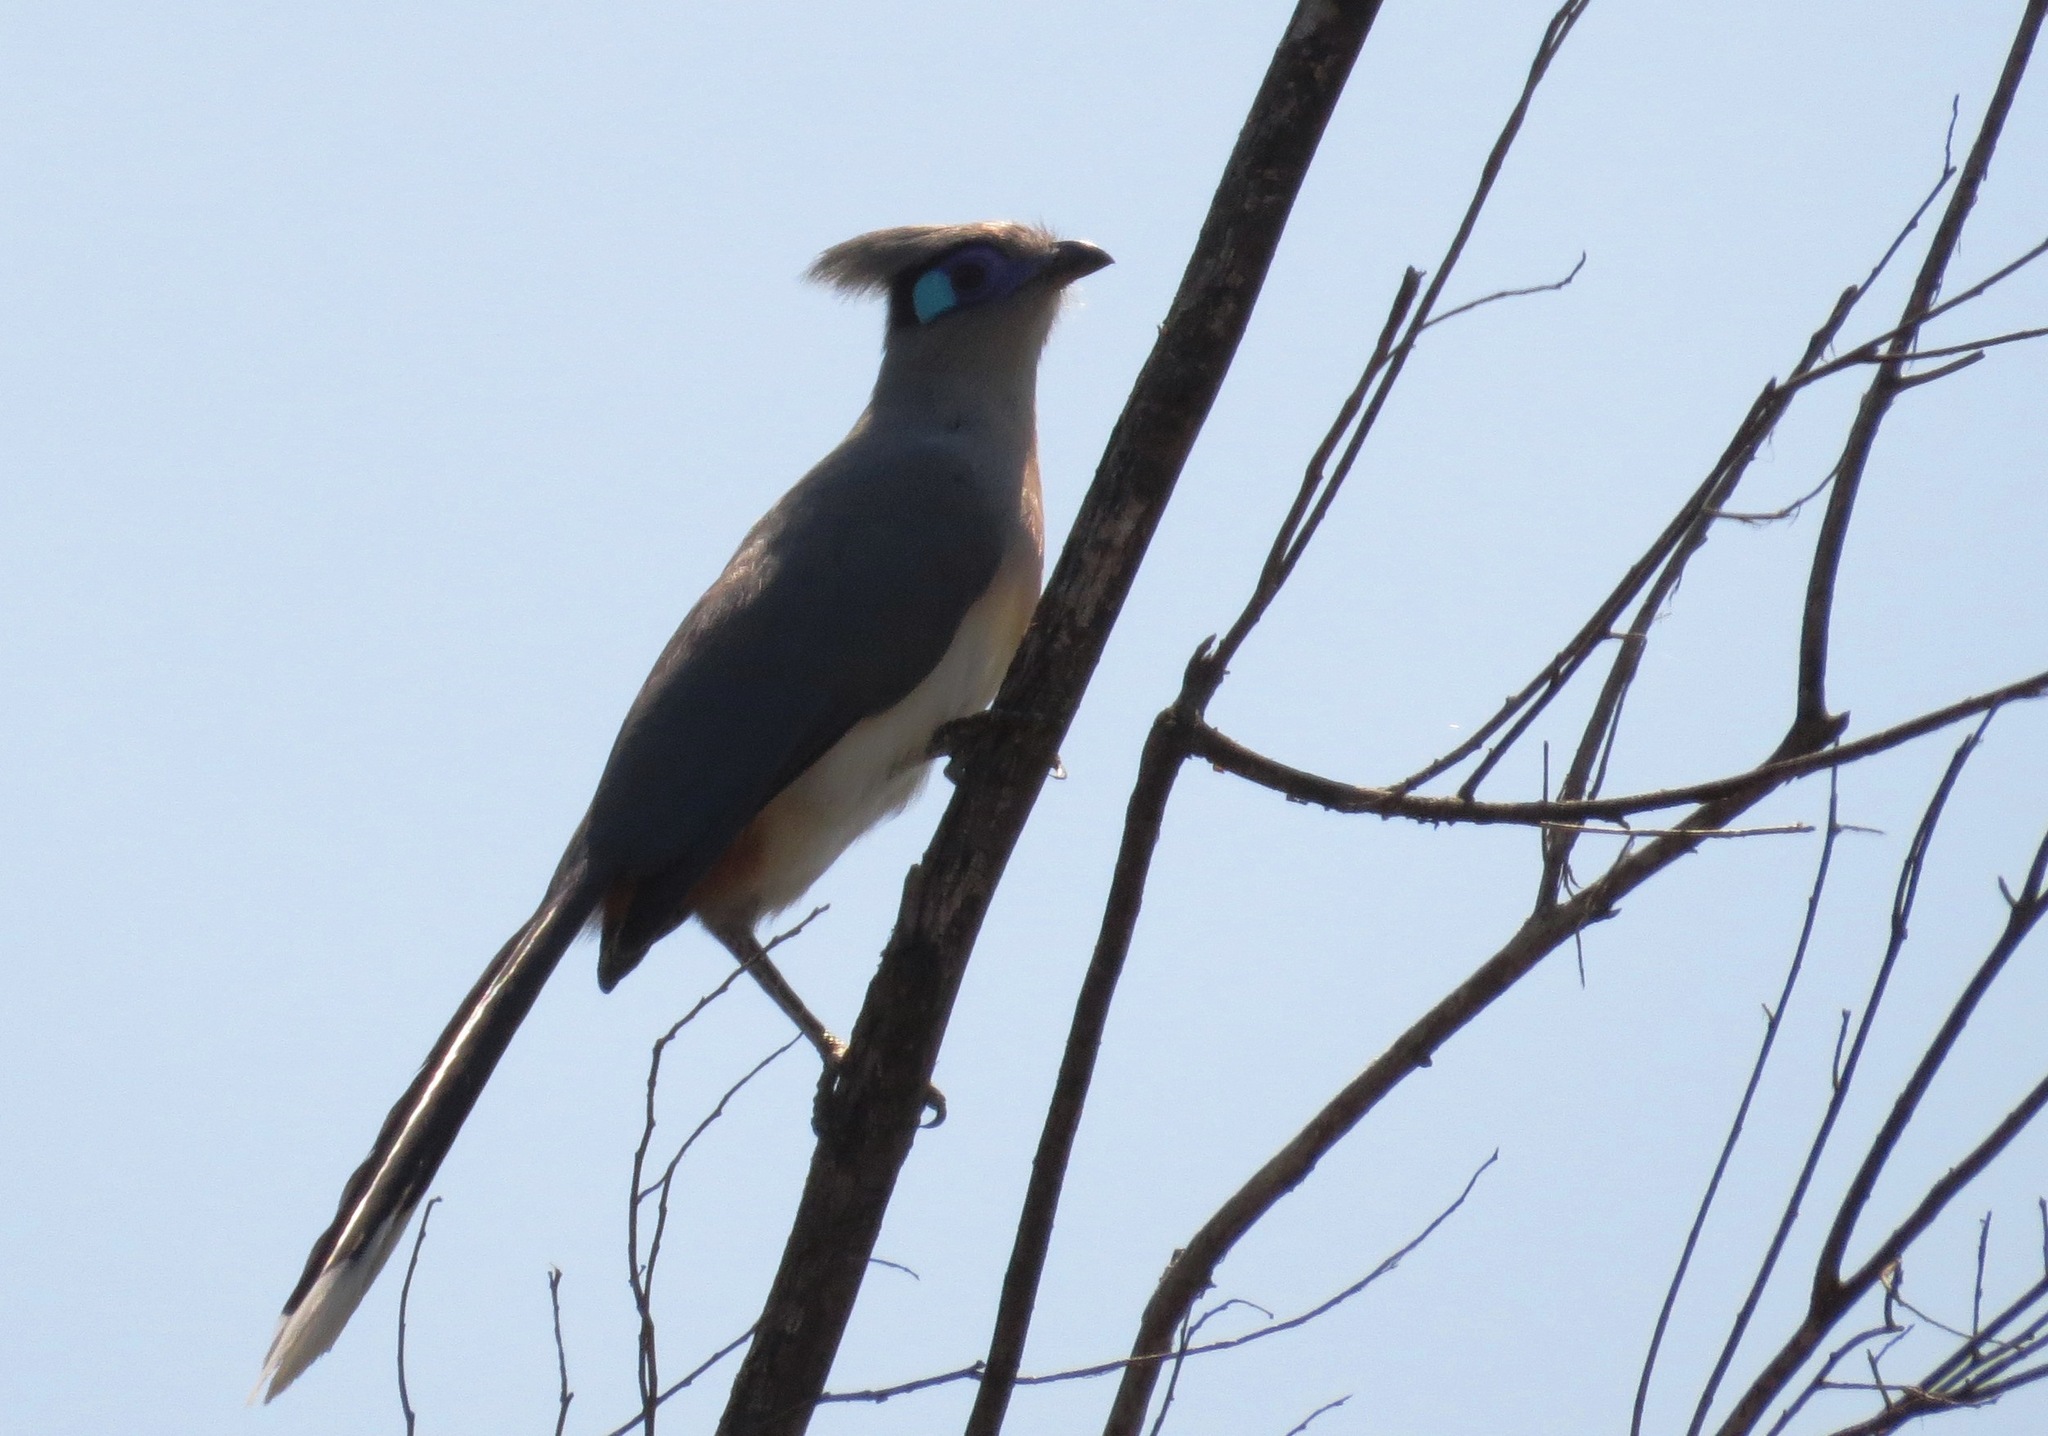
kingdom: Animalia
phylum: Chordata
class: Aves
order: Cuculiformes
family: Cuculidae
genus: Coua
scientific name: Coua cristata
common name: Crested coua
